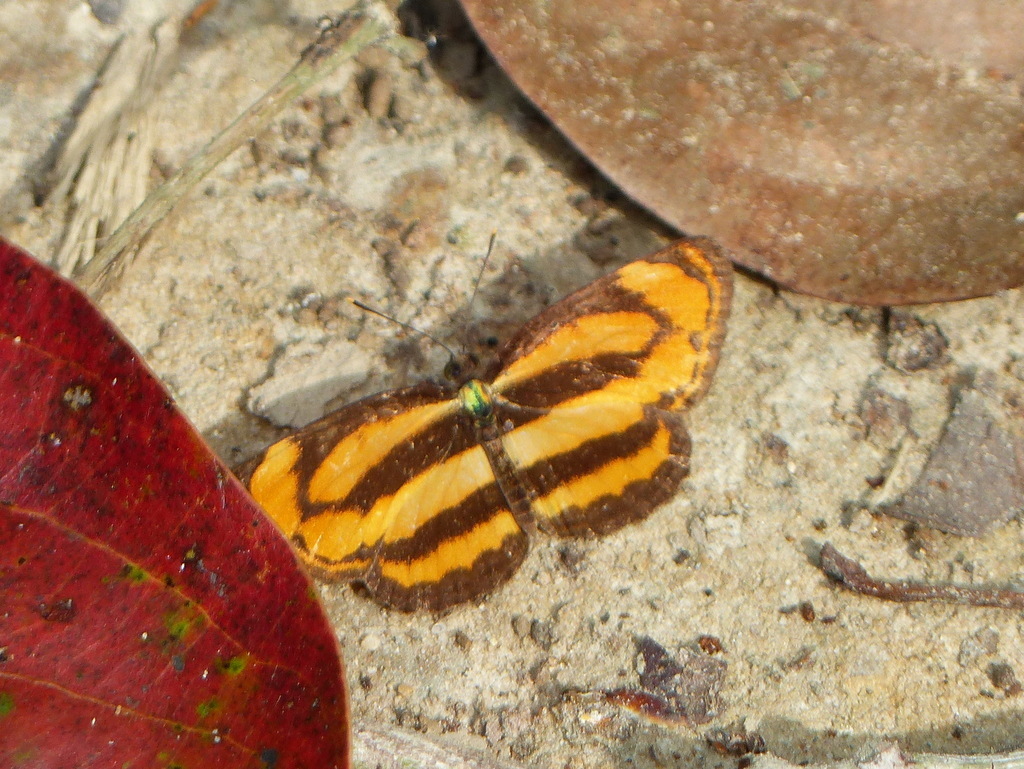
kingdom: Animalia
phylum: Arthropoda
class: Insecta
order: Lepidoptera
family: Nymphalidae
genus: Pantoporia
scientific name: Pantoporia hordonia
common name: Common lascar
